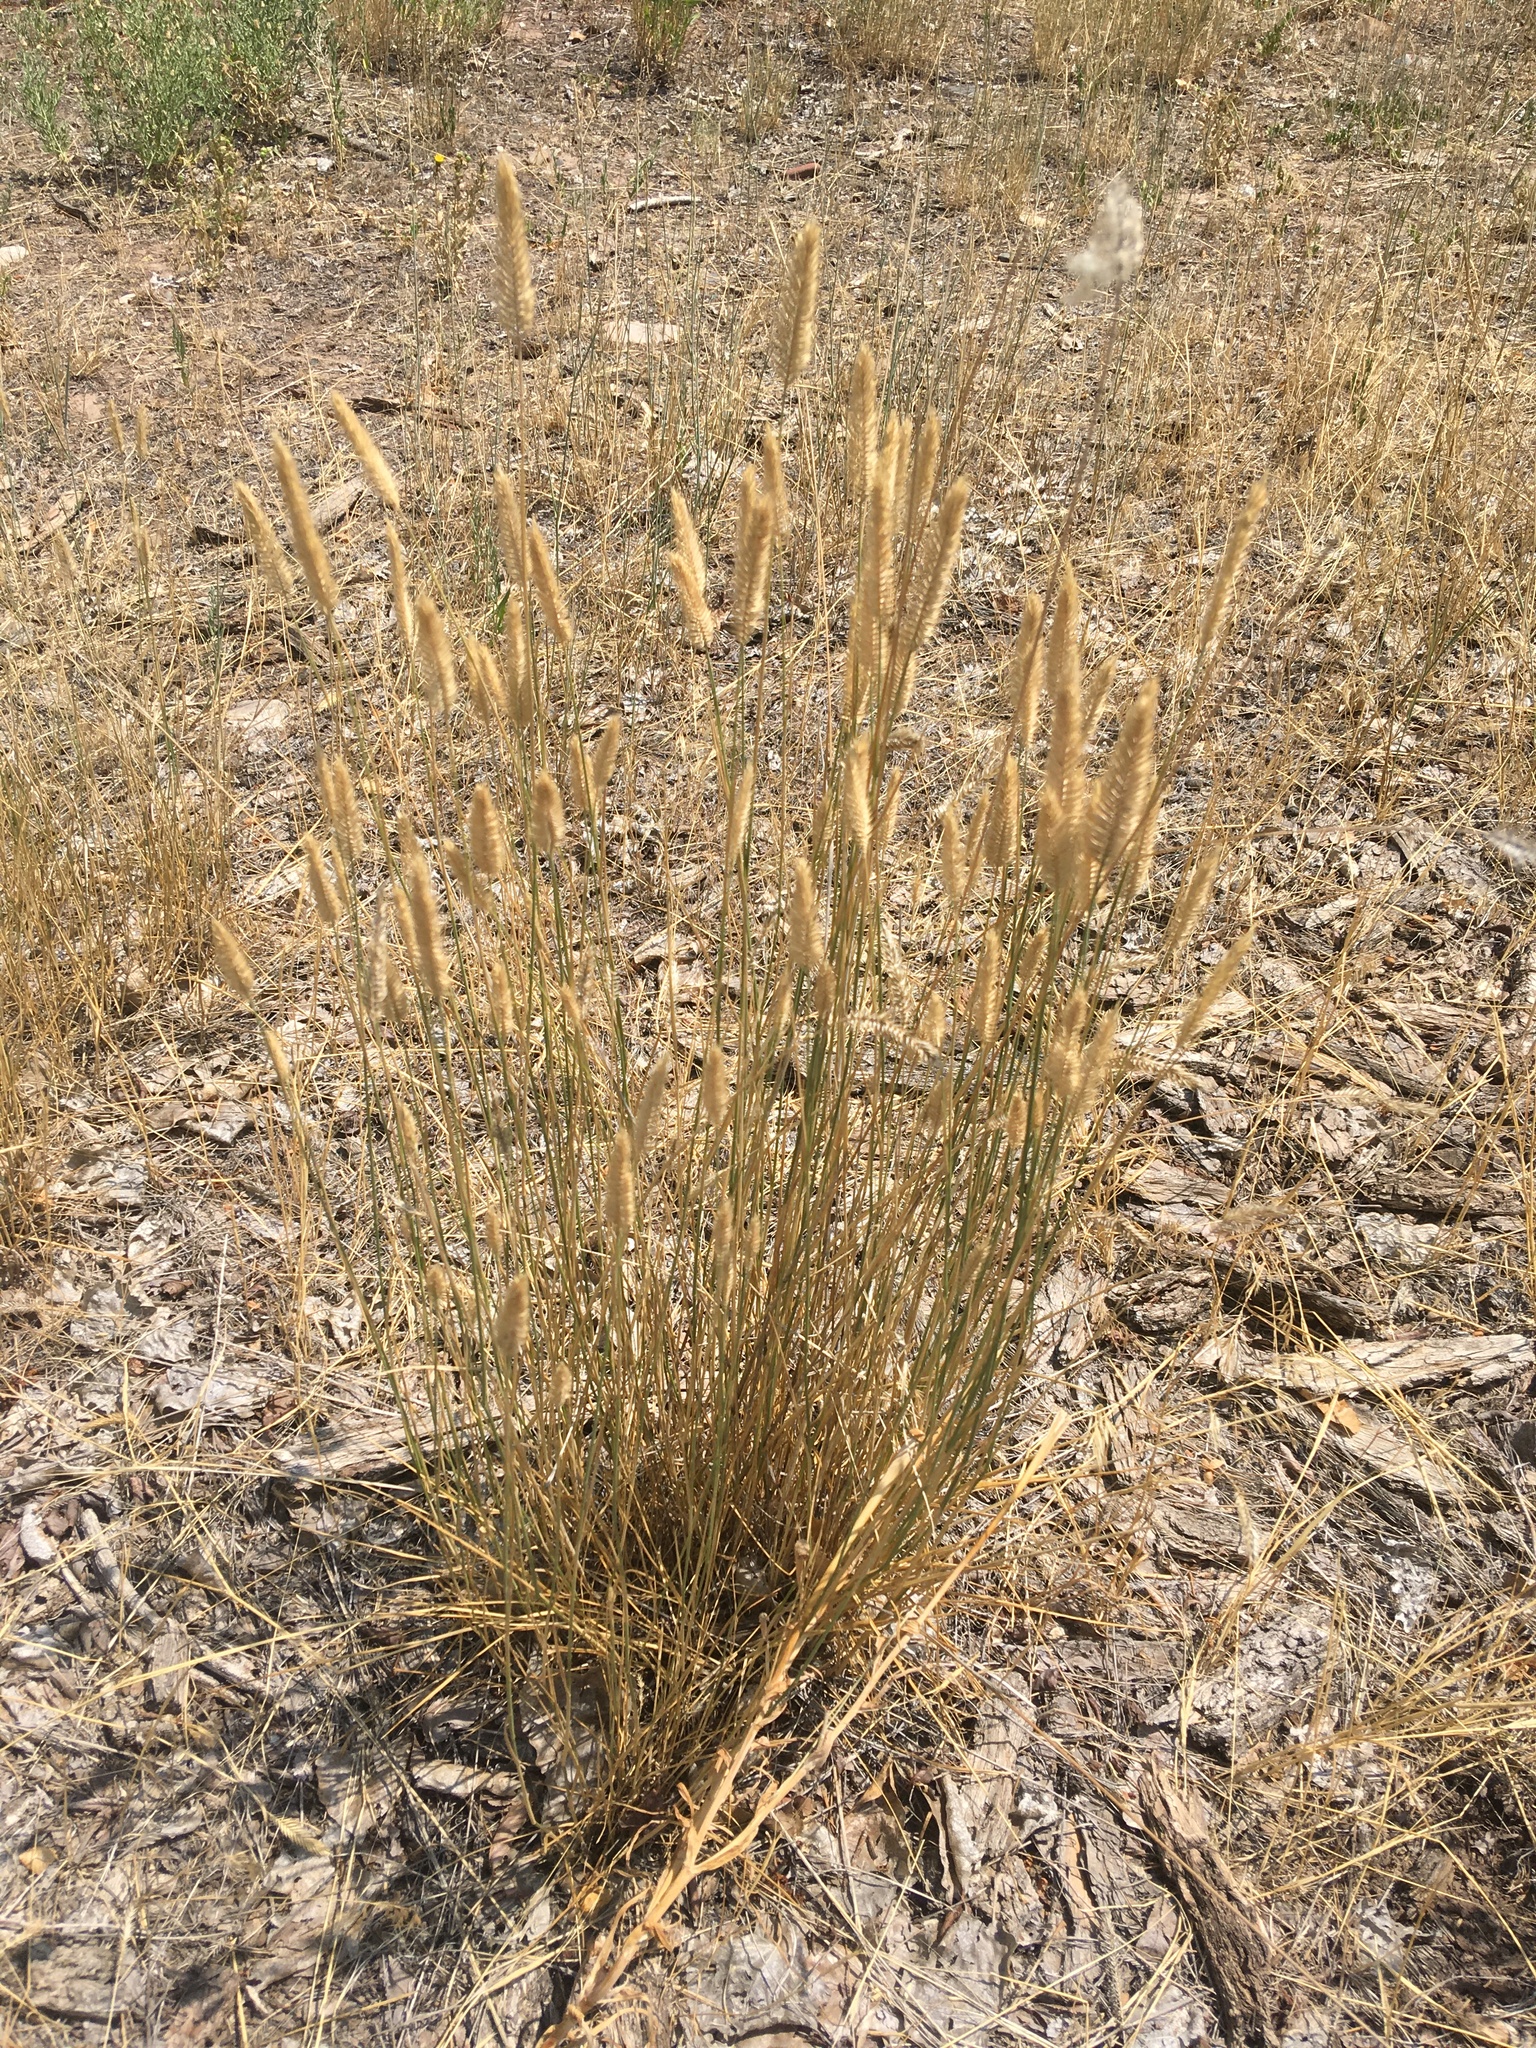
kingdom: Plantae
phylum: Tracheophyta
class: Liliopsida
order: Poales
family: Poaceae
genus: Agropyron
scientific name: Agropyron cristatum
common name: Crested wheatgrass
